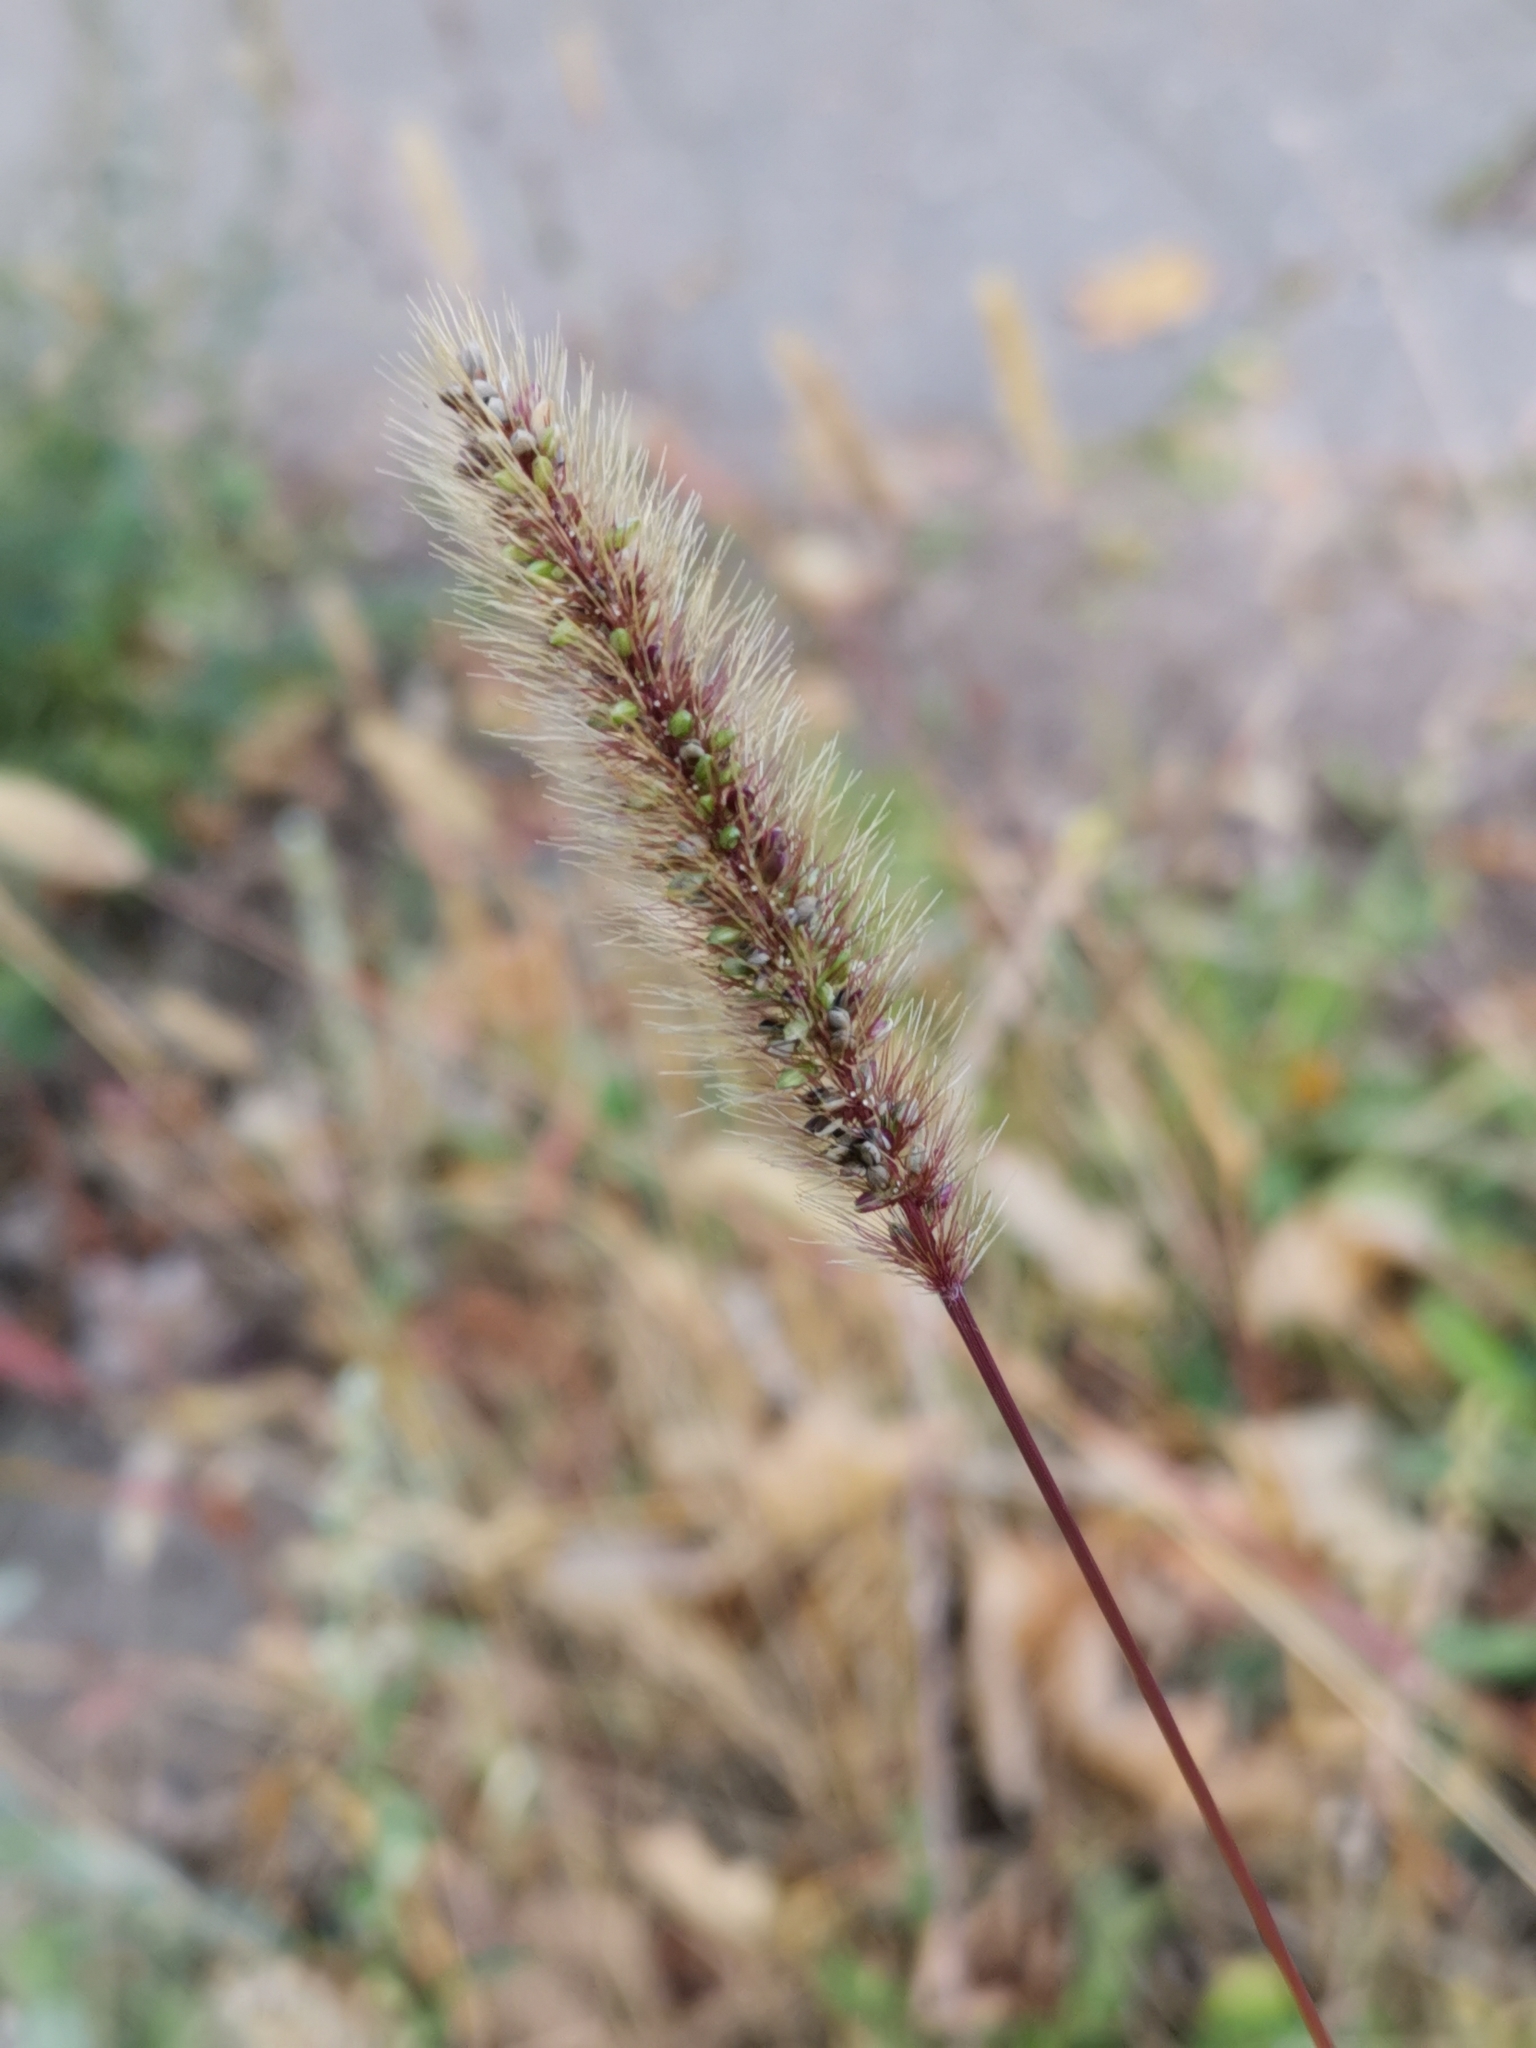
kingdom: Plantae
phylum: Tracheophyta
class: Liliopsida
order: Poales
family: Poaceae
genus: Setaria
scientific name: Setaria viridis
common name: Green bristlegrass
